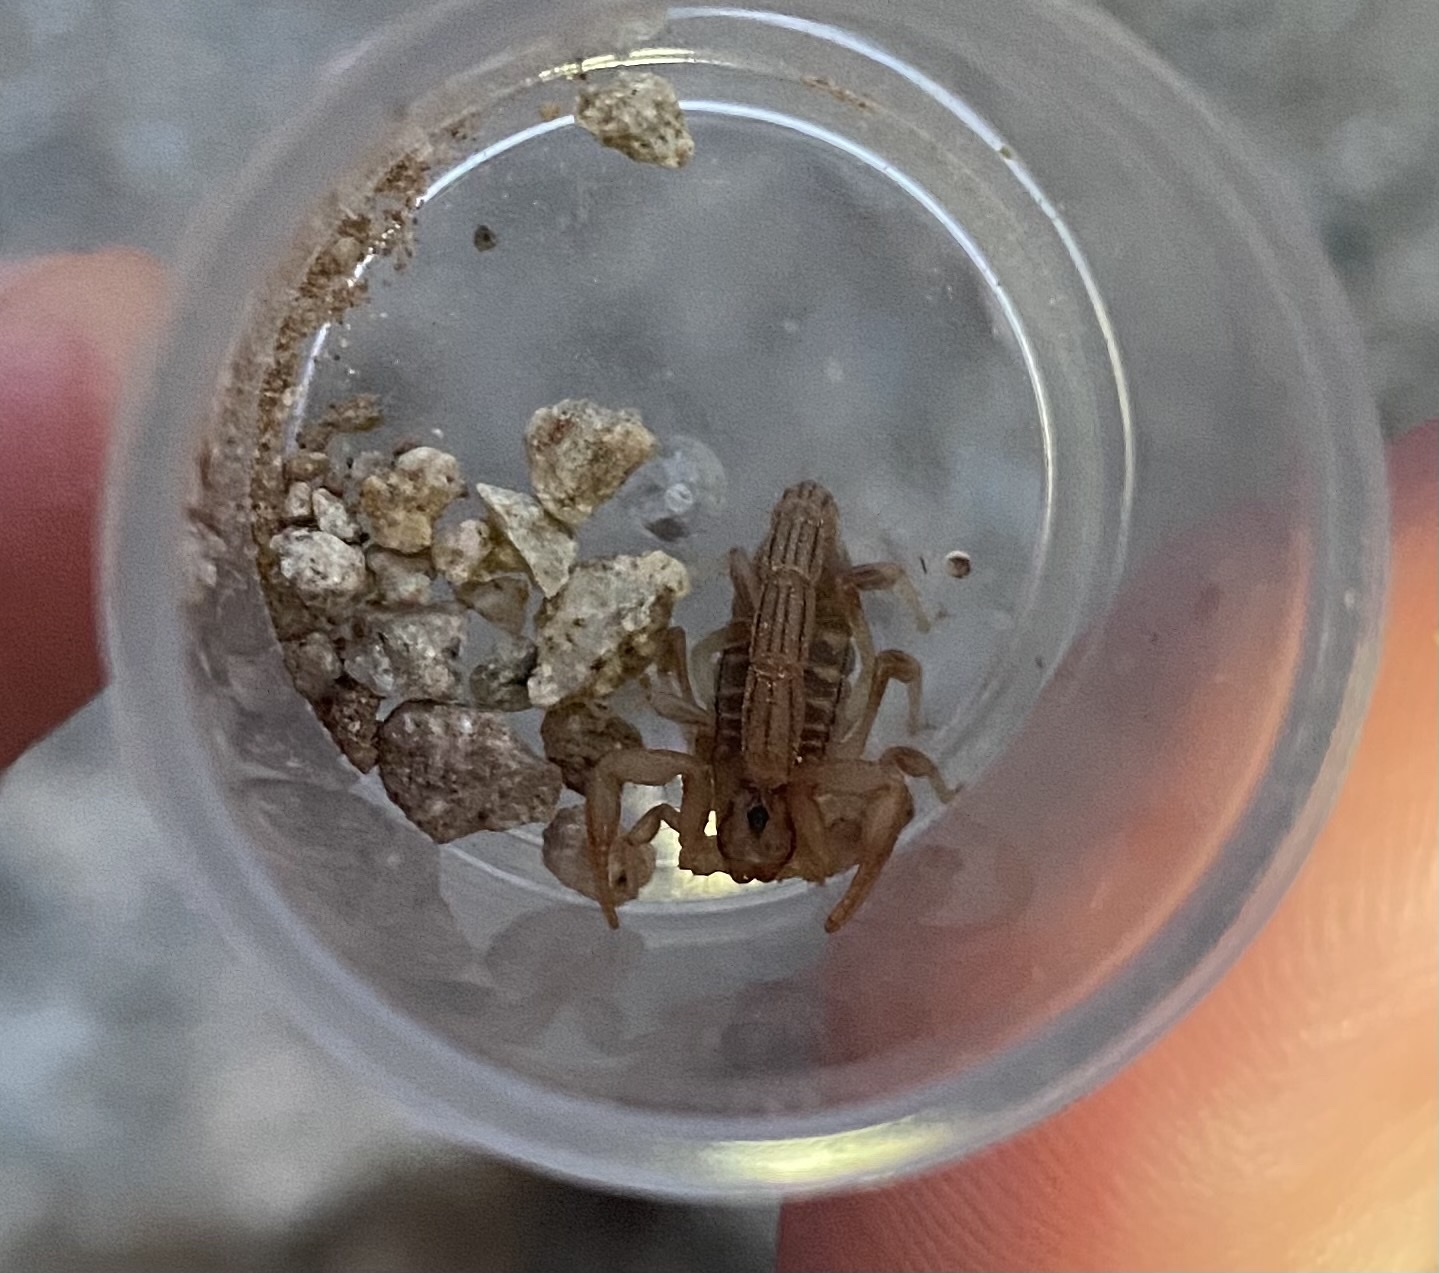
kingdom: Animalia
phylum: Arthropoda
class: Arachnida
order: Scorpiones
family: Vaejovidae
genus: Paravaejovis
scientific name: Paravaejovis spinigerus
